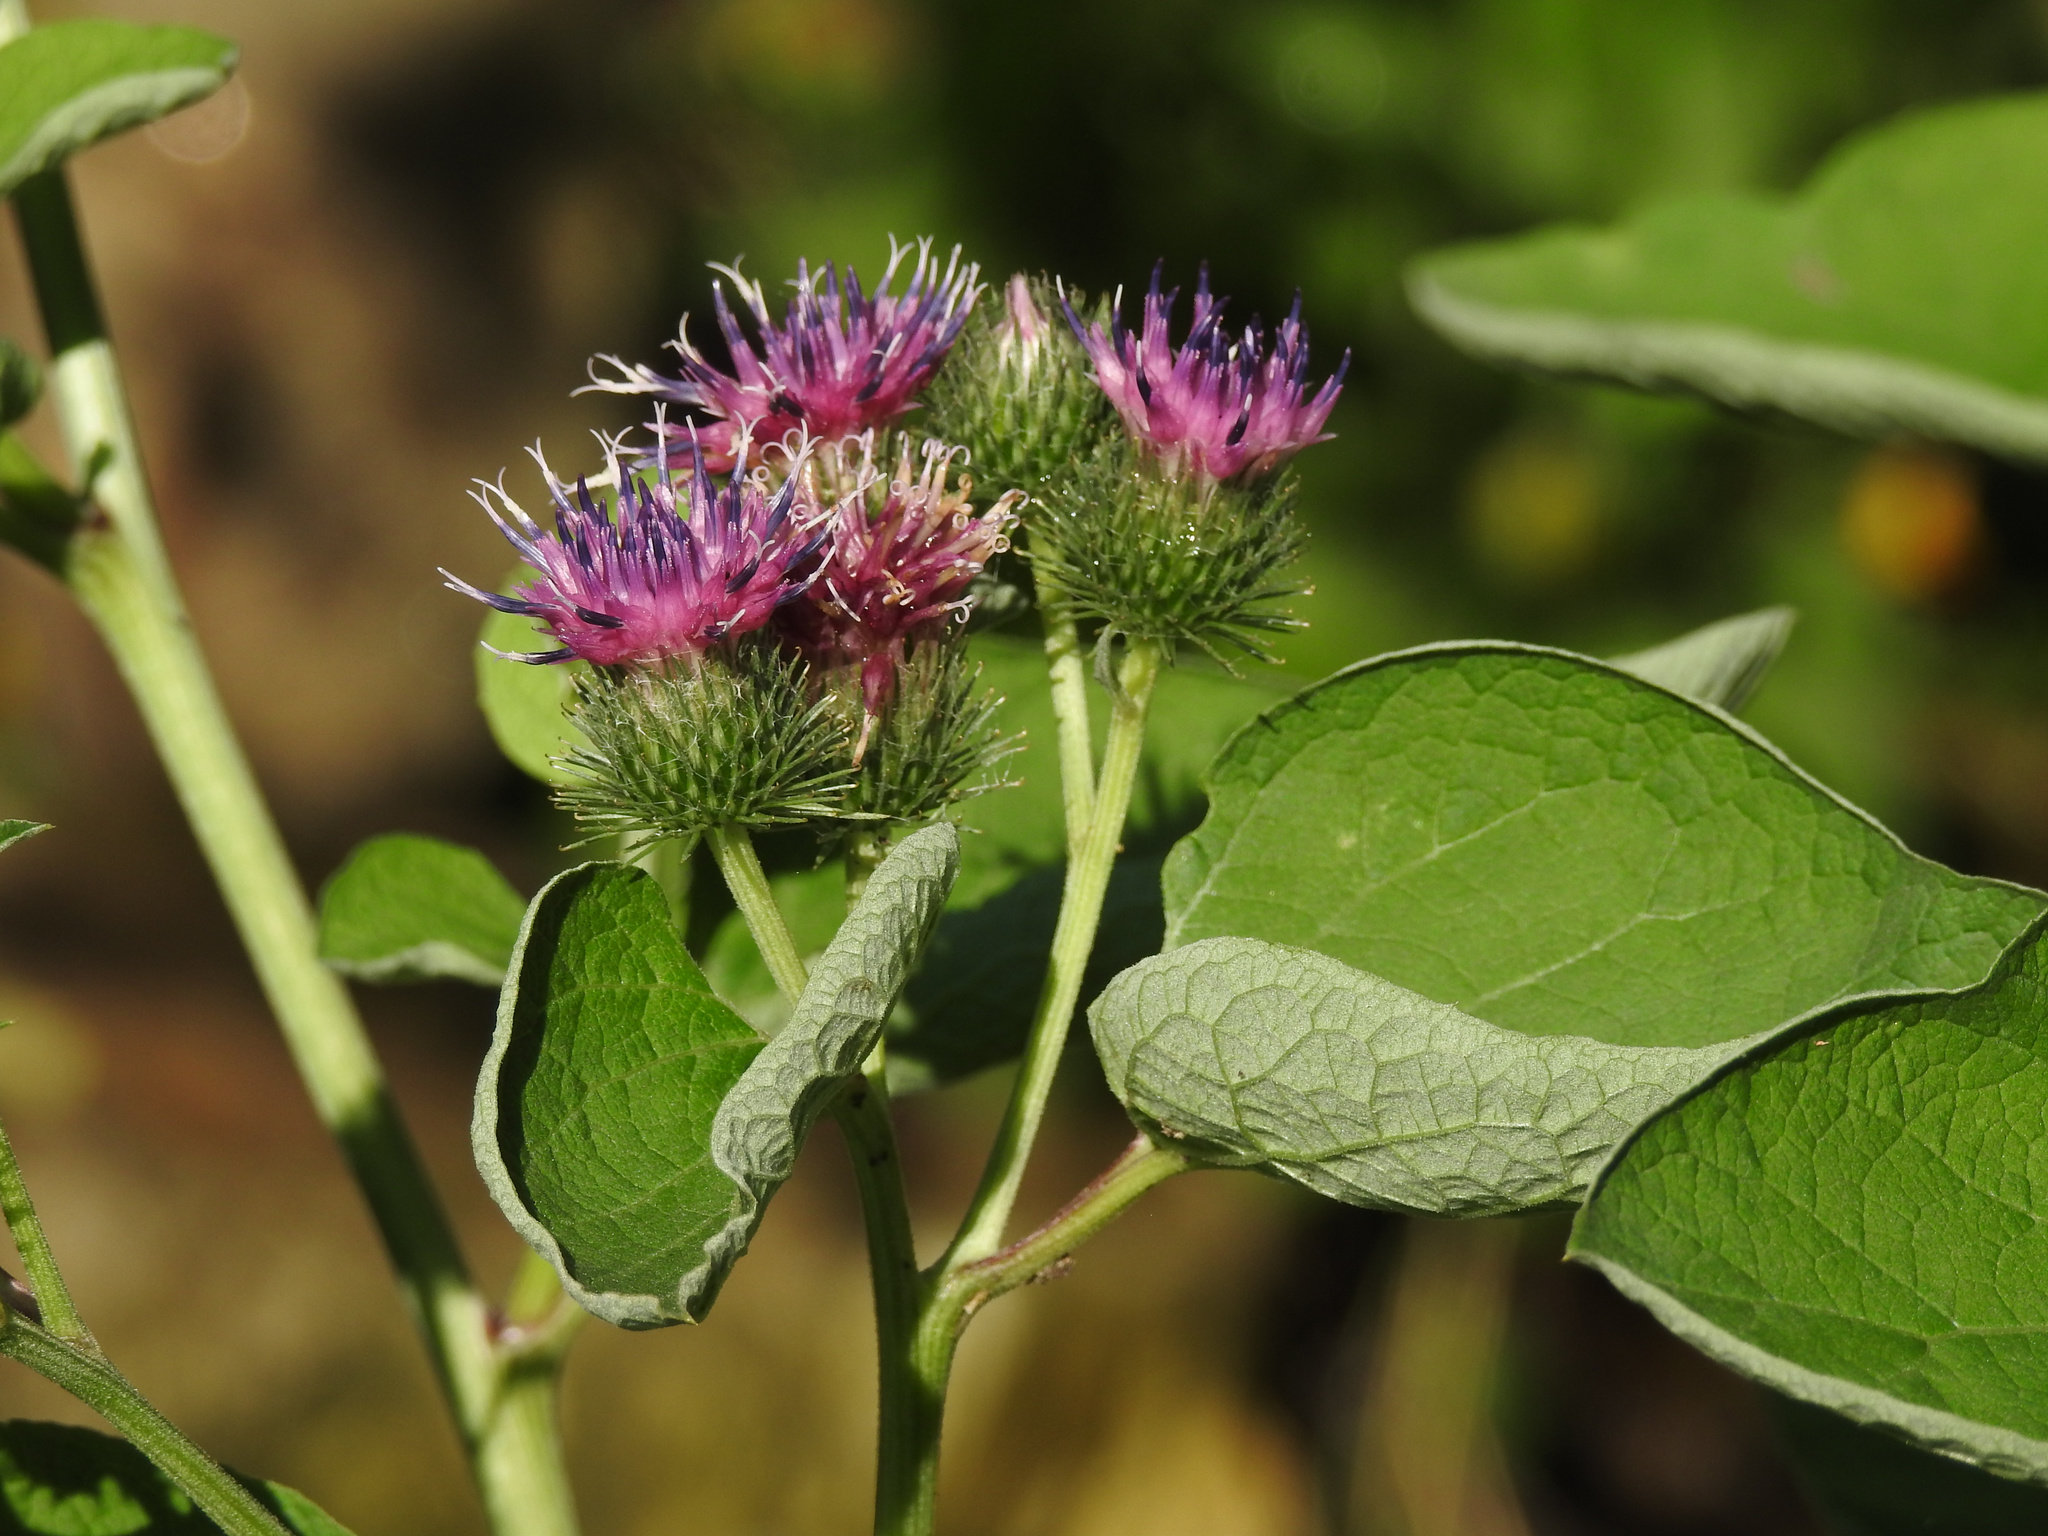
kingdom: Plantae
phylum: Tracheophyta
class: Magnoliopsida
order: Asterales
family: Asteraceae
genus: Arctium
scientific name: Arctium lappa
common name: Greater burdock
